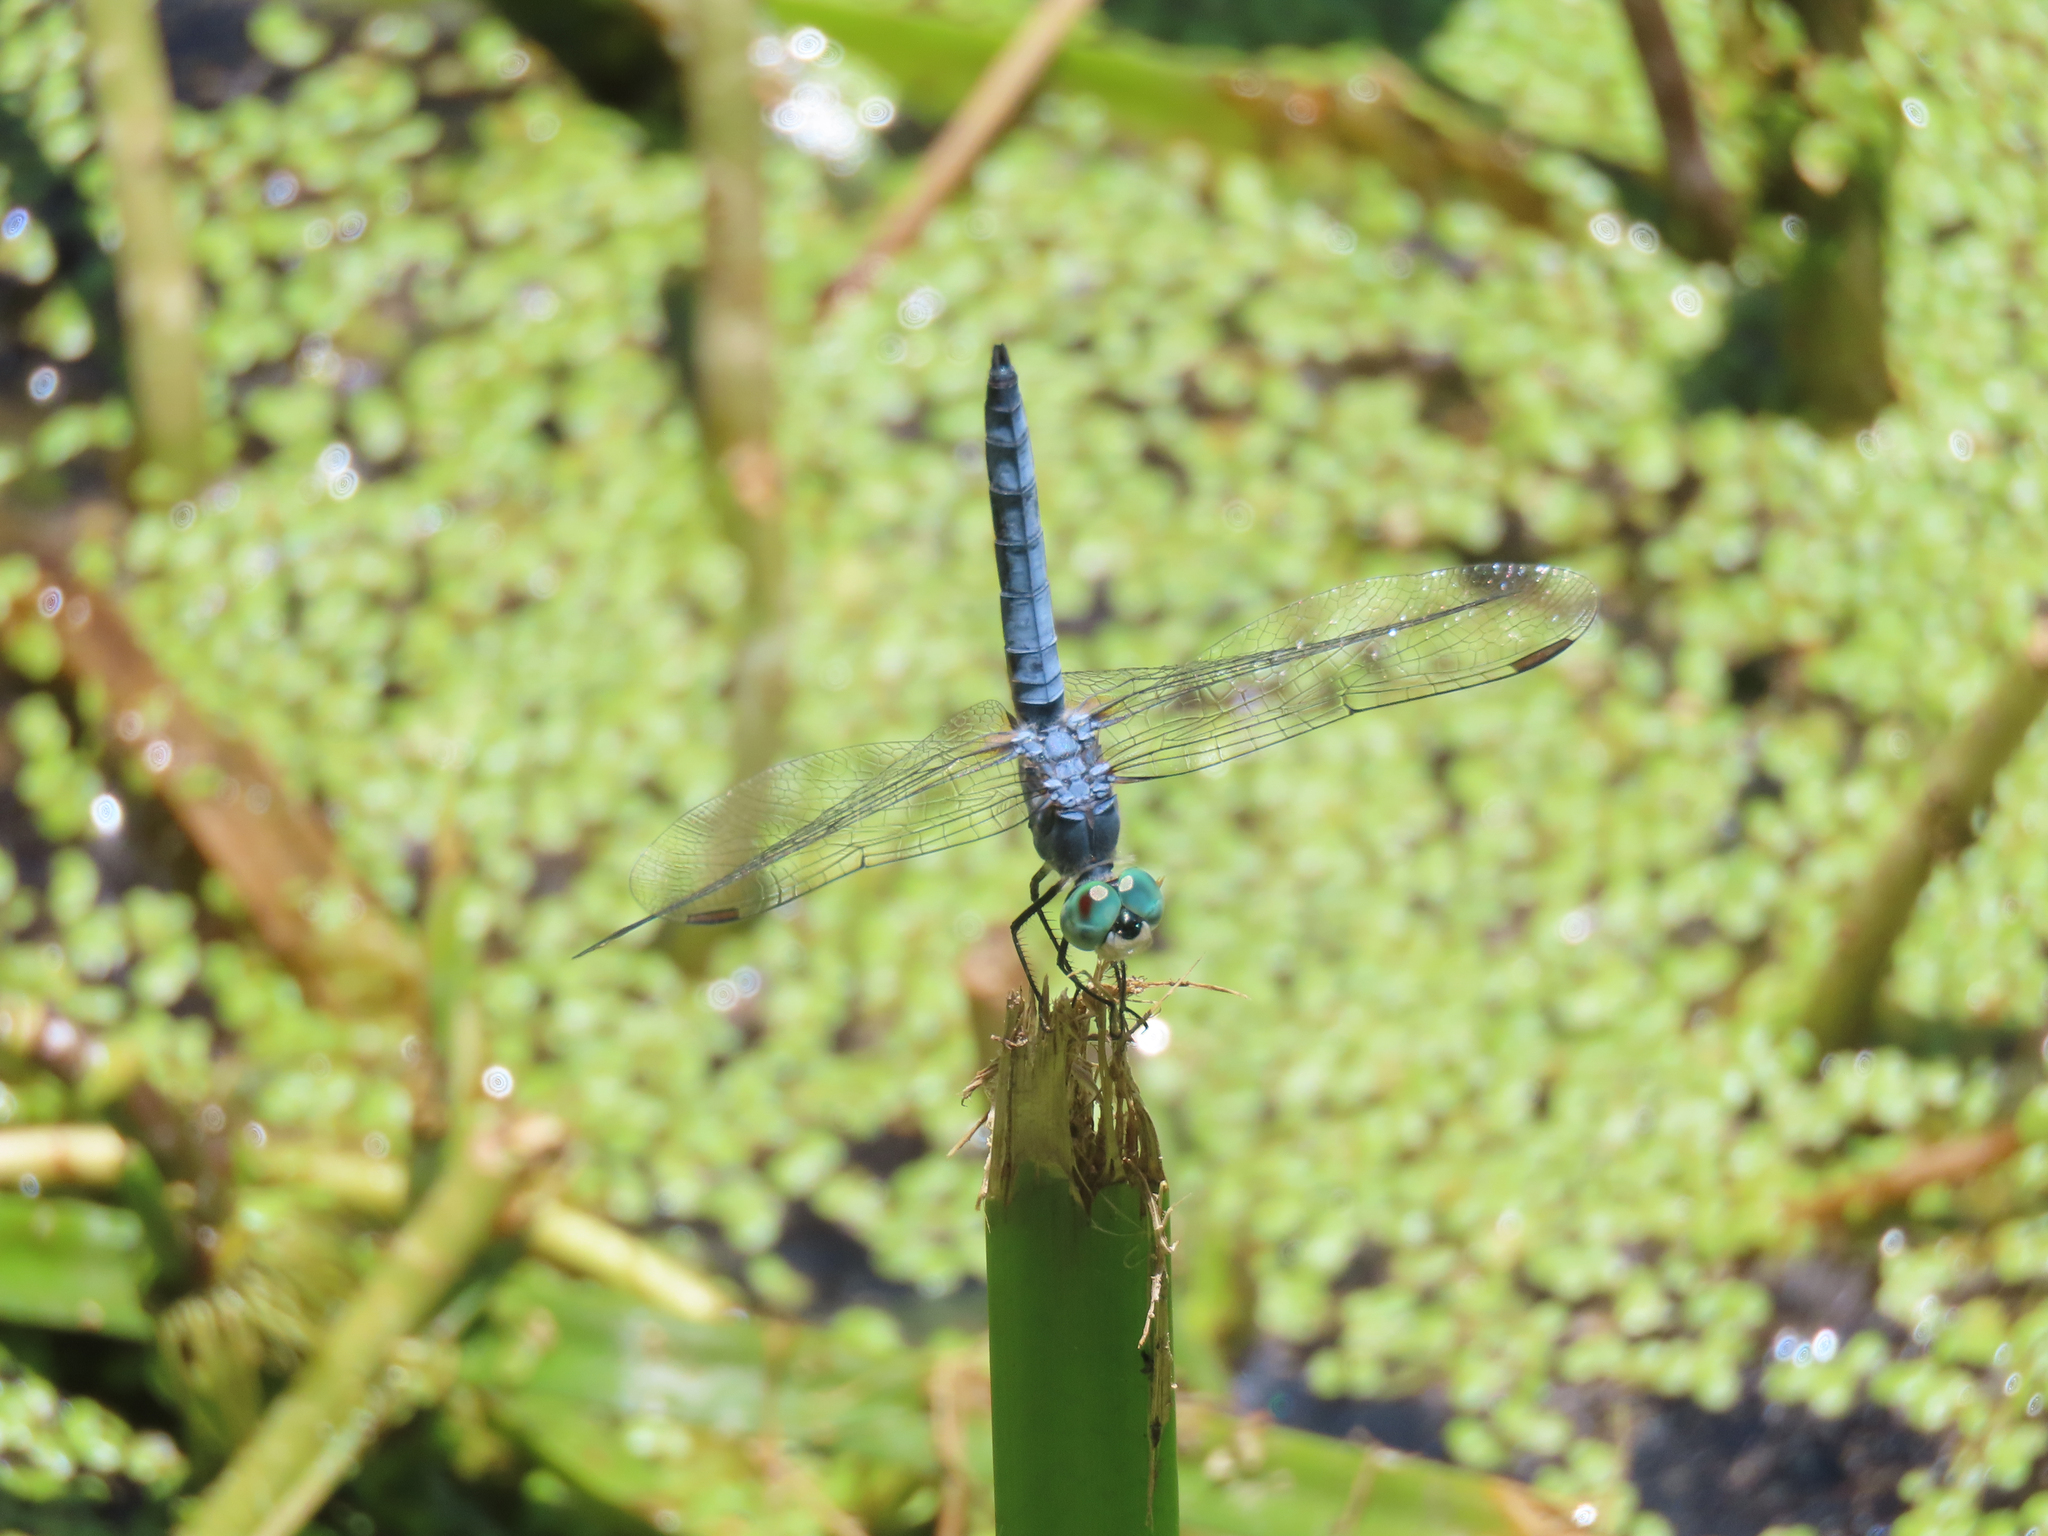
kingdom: Animalia
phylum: Arthropoda
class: Insecta
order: Odonata
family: Libellulidae
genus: Pachydiplax
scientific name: Pachydiplax longipennis
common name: Blue dasher
